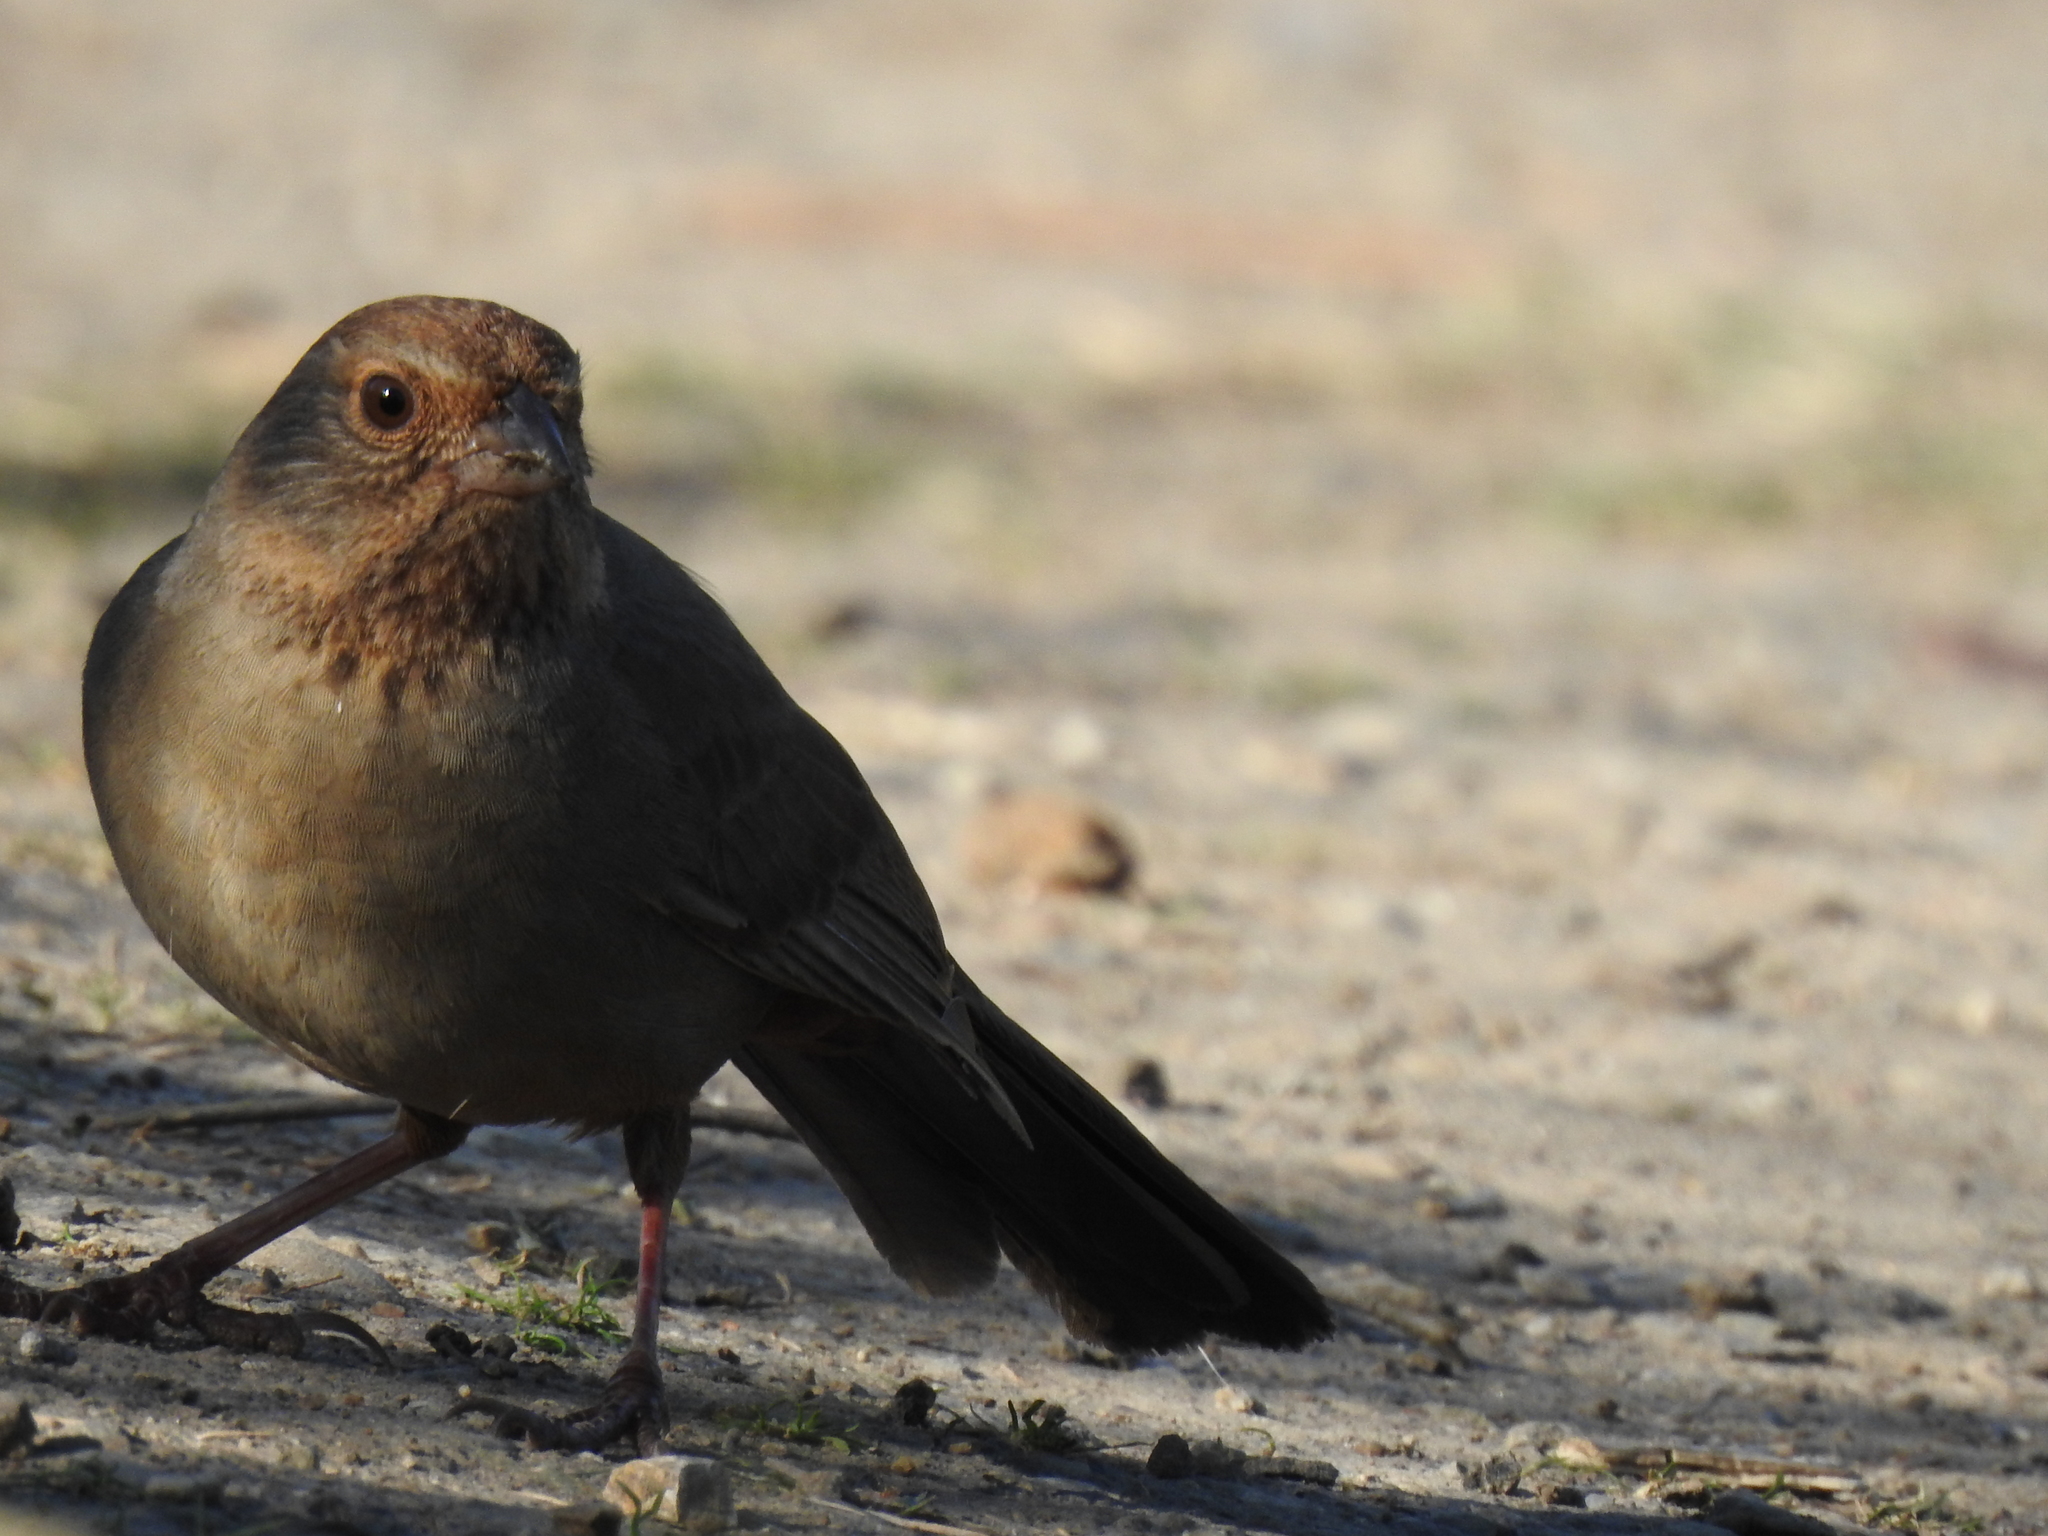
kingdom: Animalia
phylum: Chordata
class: Aves
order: Passeriformes
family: Passerellidae
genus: Melozone
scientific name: Melozone crissalis
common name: California towhee
